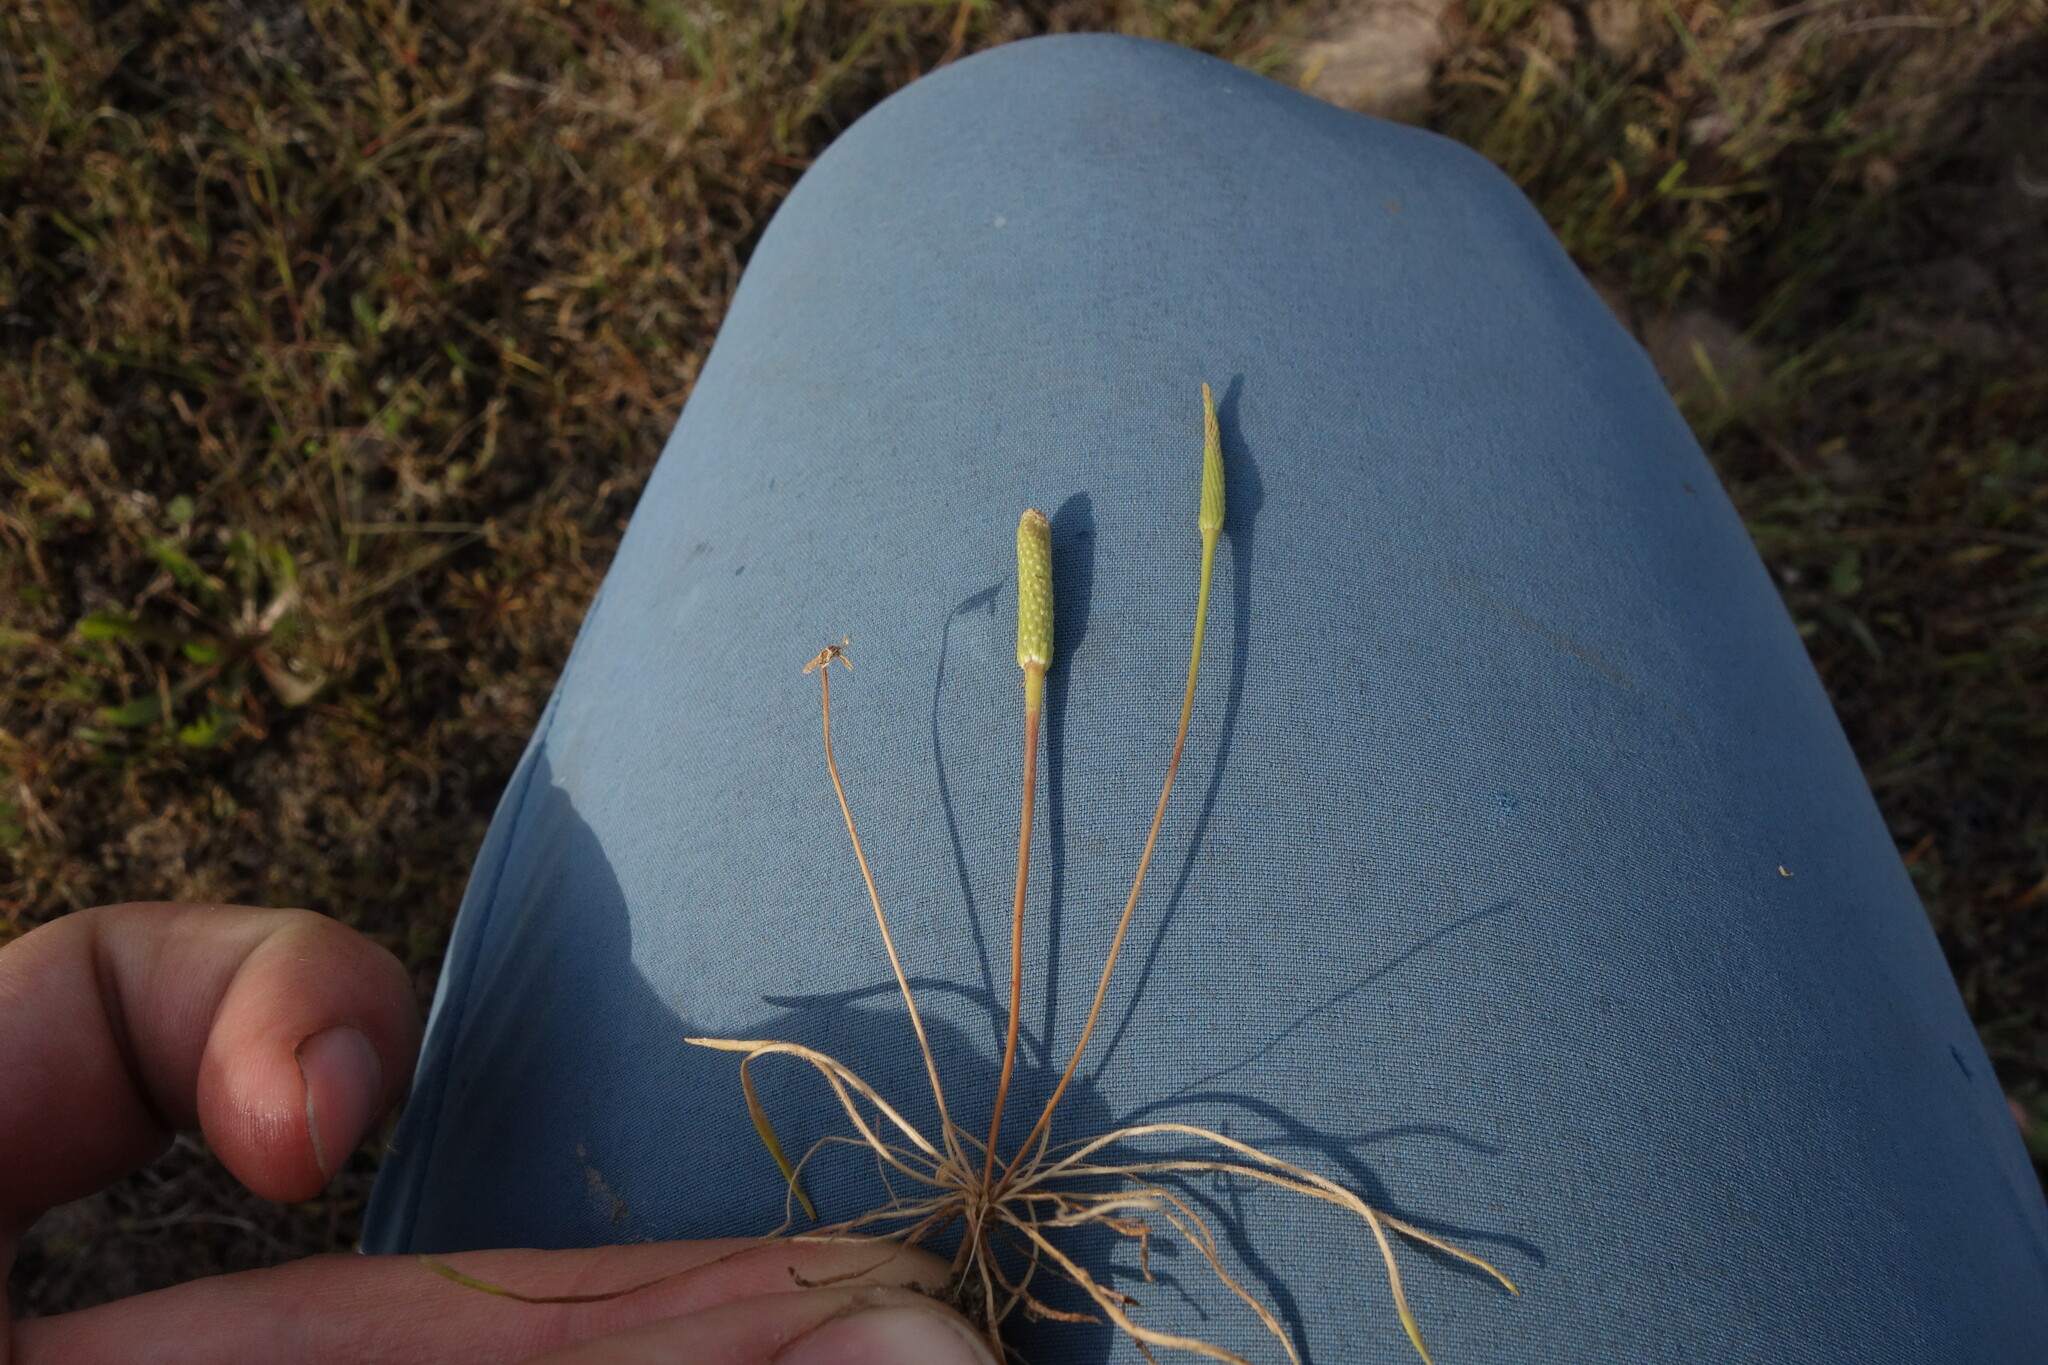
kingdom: Plantae
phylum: Tracheophyta
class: Magnoliopsida
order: Ranunculales
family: Ranunculaceae
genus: Myosurus
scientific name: Myosurus minimus
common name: Mousetail
